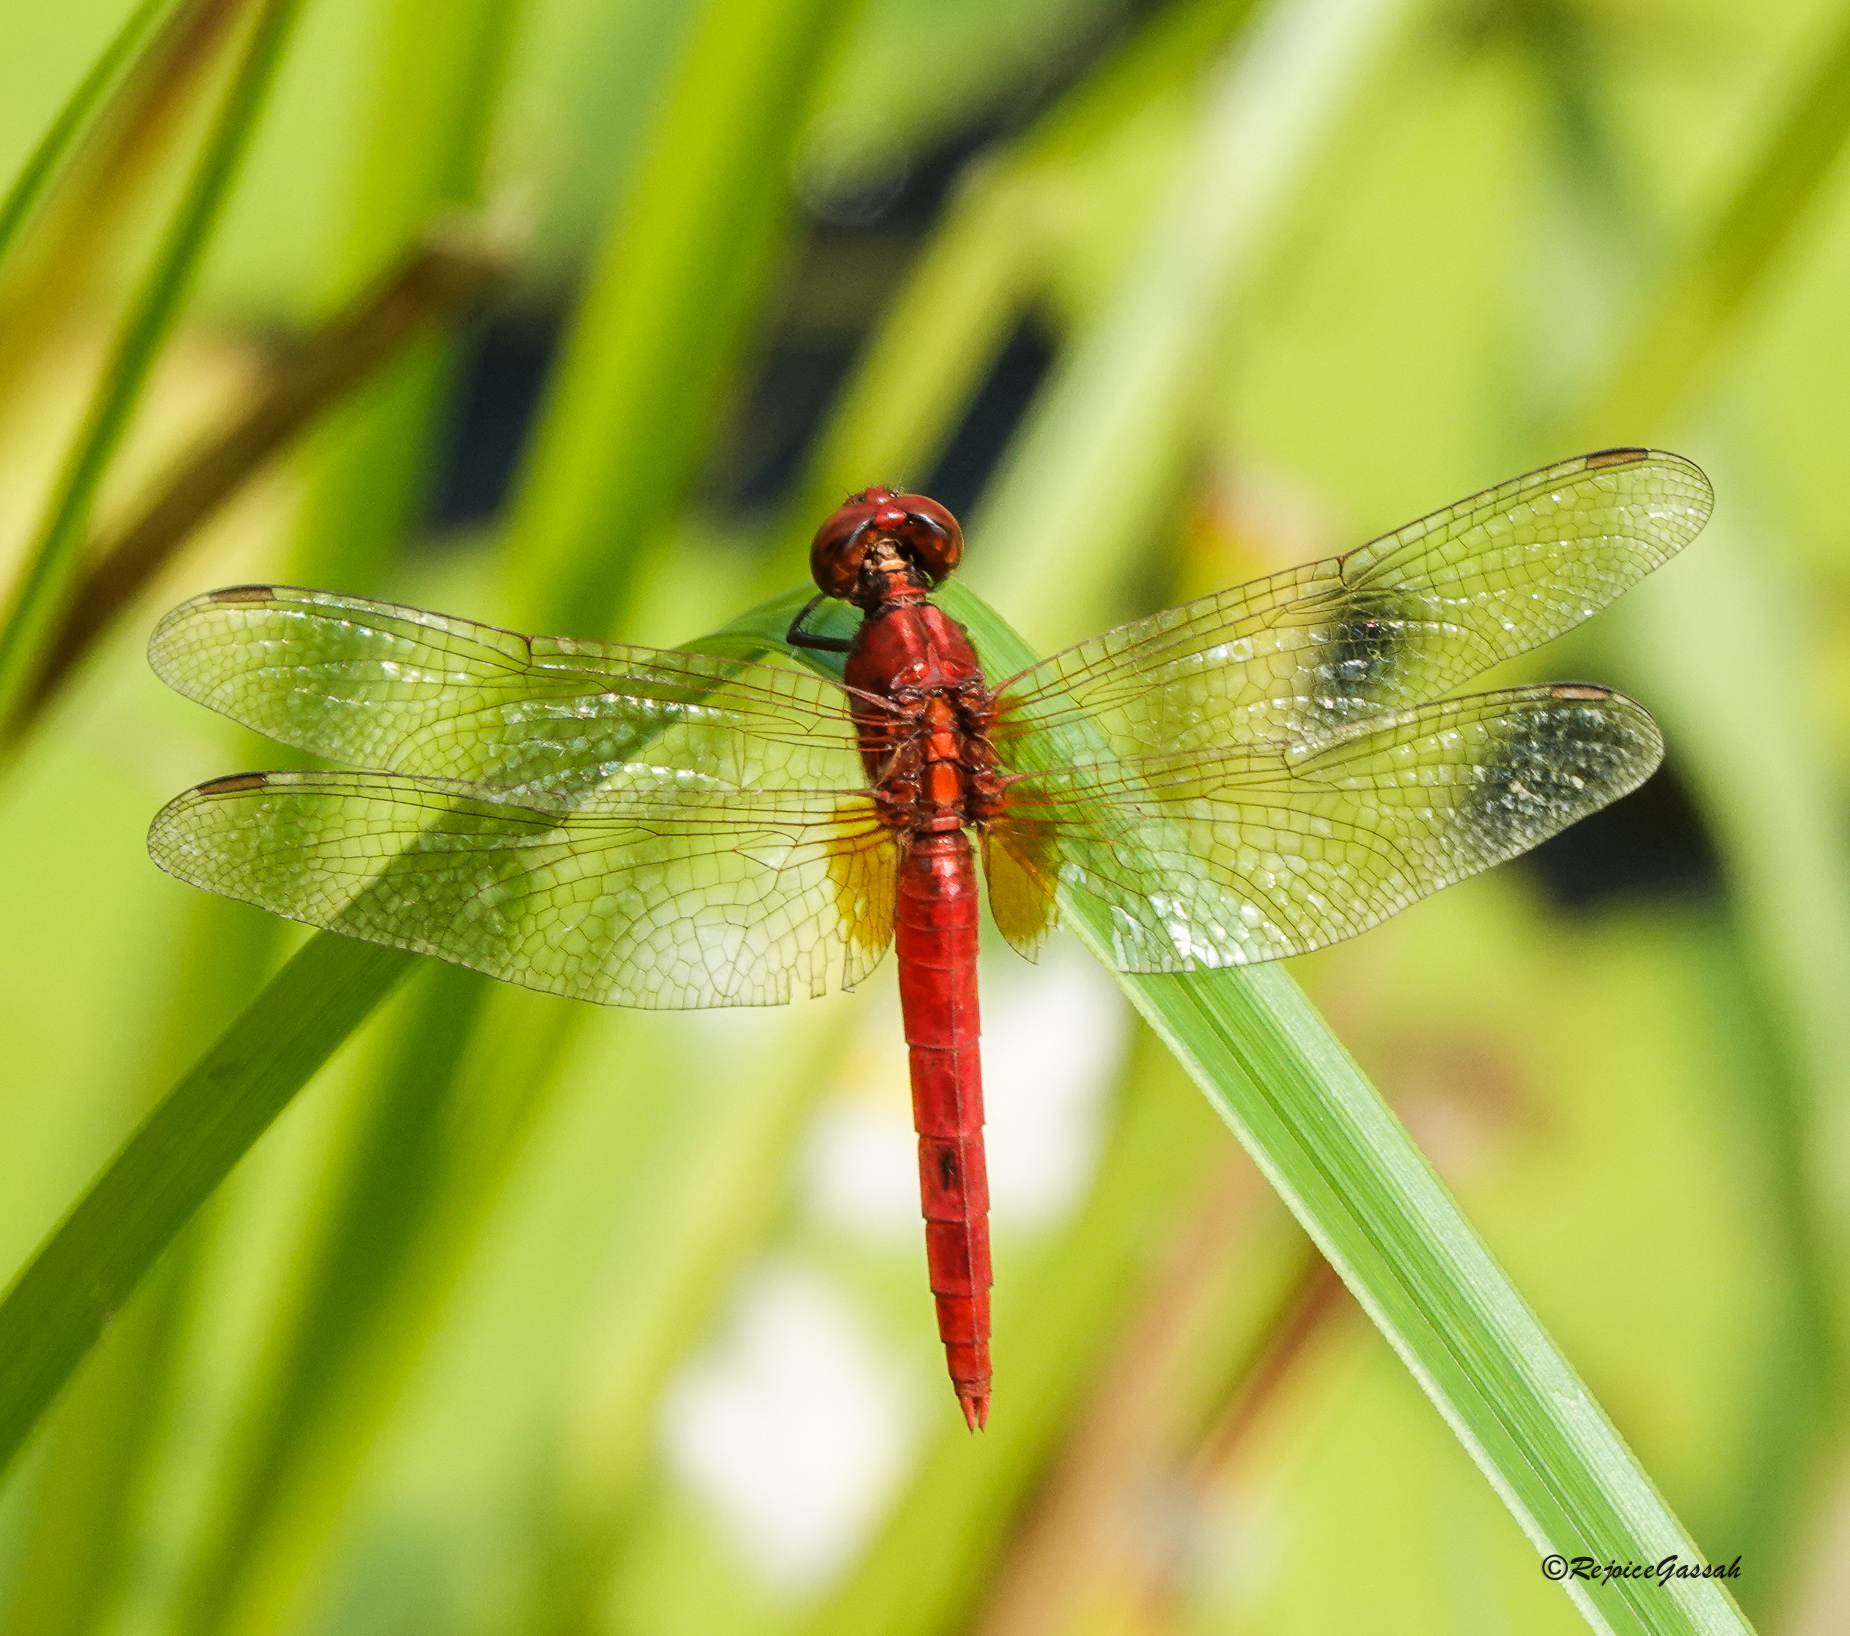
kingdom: Animalia
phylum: Arthropoda
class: Insecta
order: Odonata
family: Libellulidae
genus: Rhodothemis
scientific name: Rhodothemis rufa
